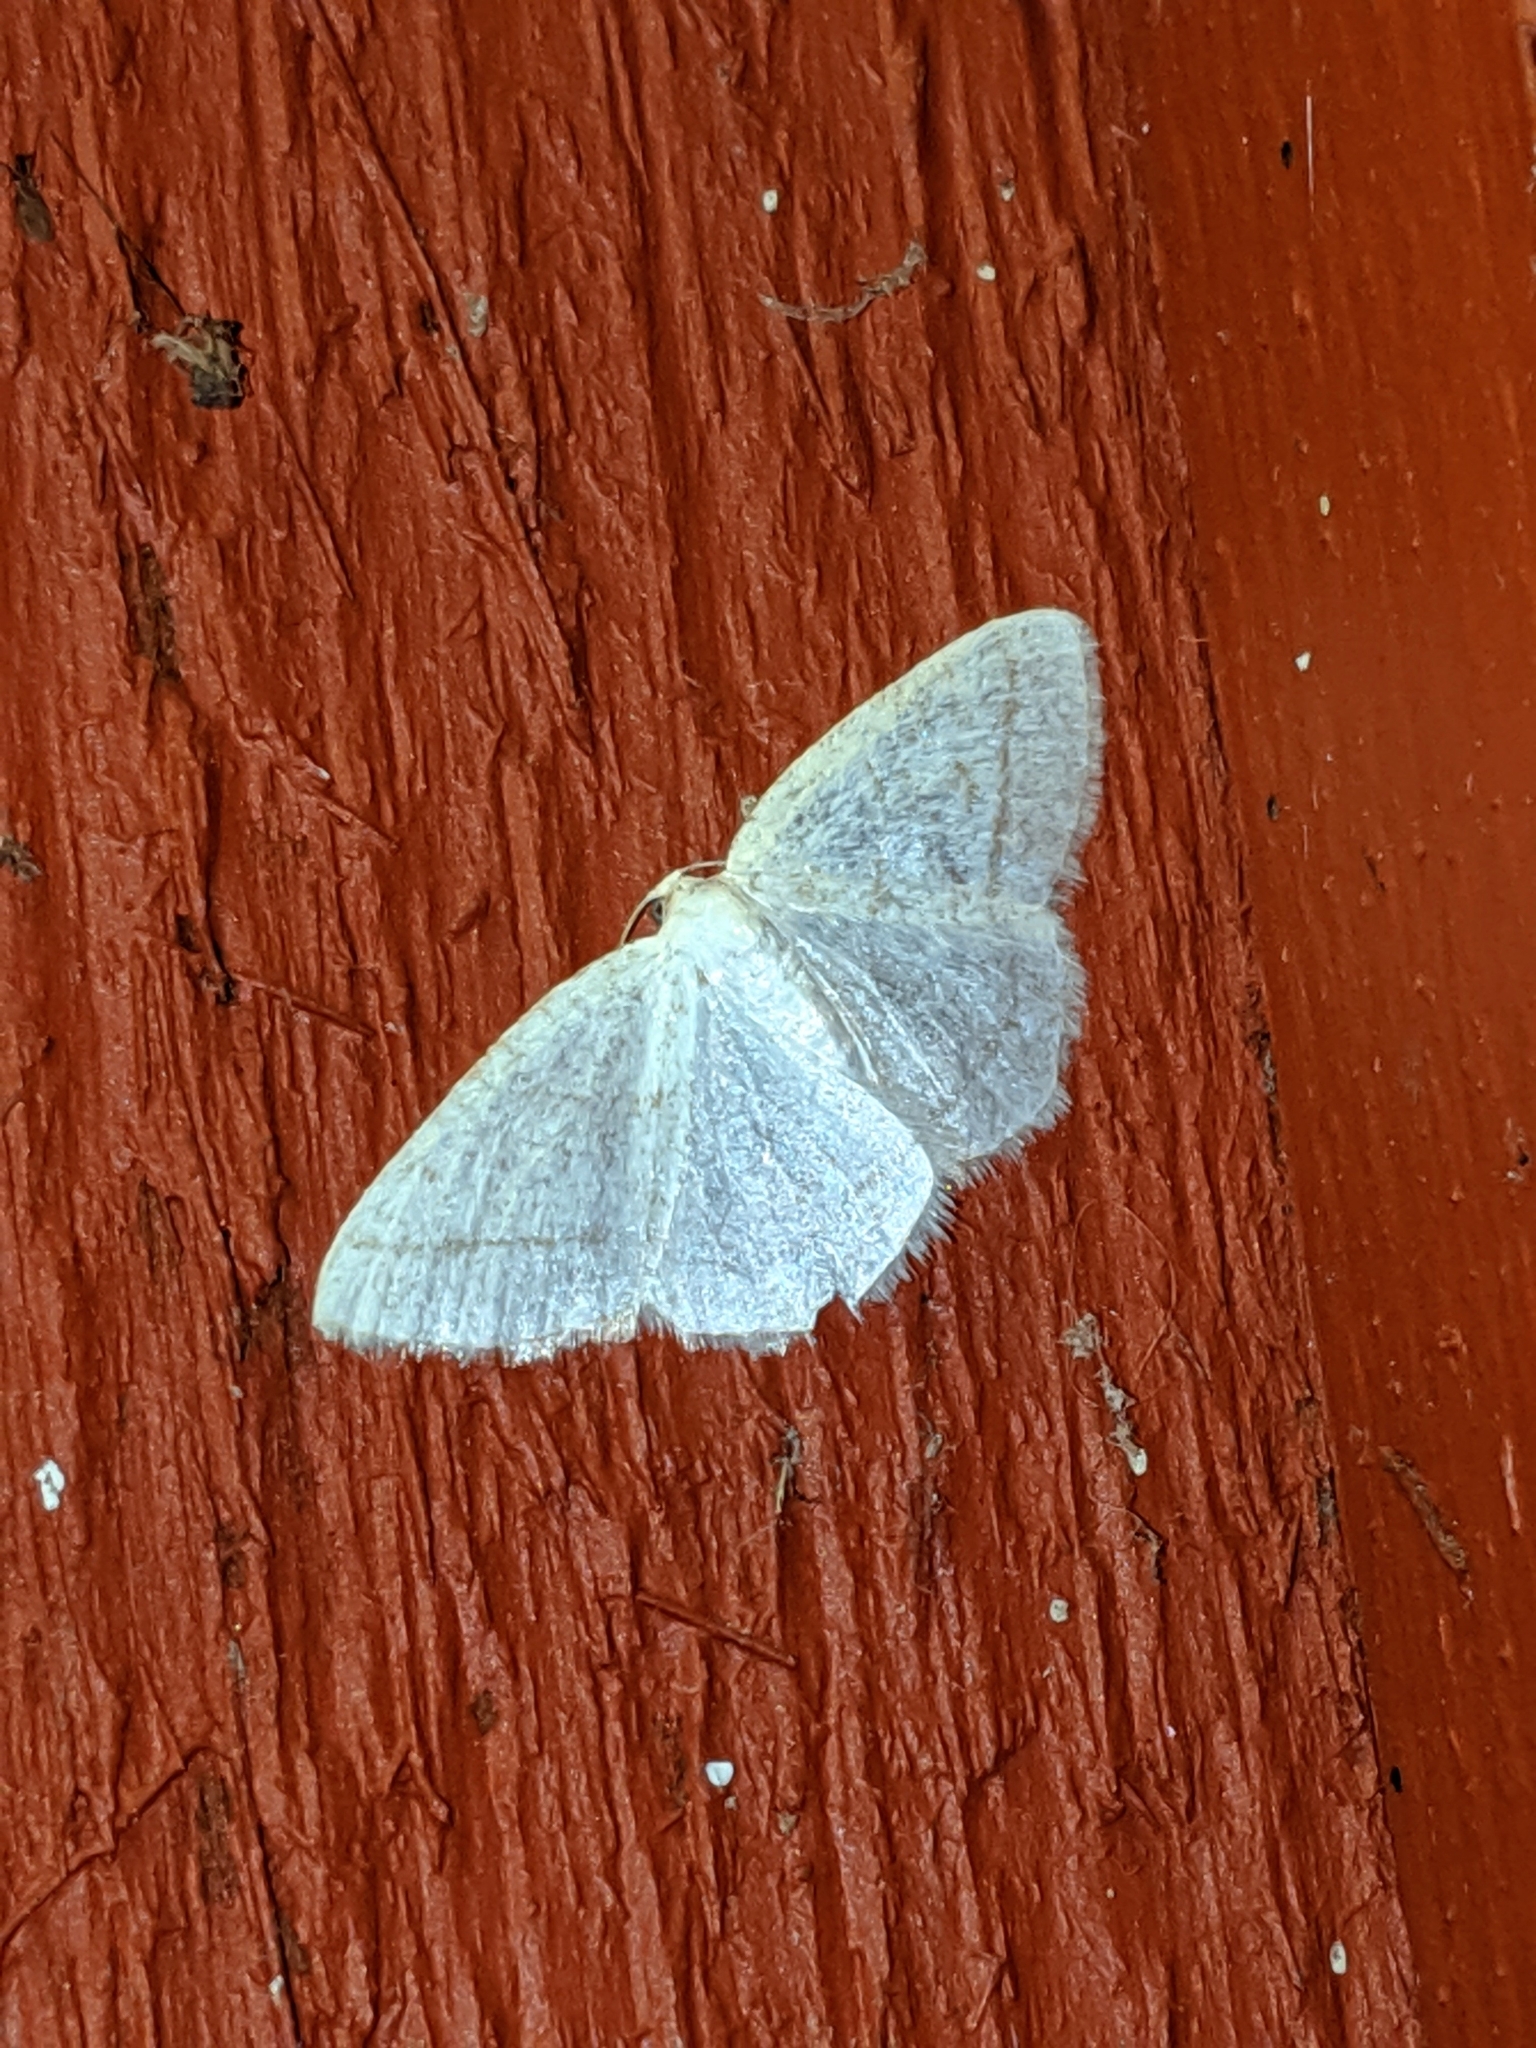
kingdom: Animalia
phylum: Arthropoda
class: Insecta
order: Lepidoptera
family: Geometridae
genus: Protitame
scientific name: Protitame subalbaria
